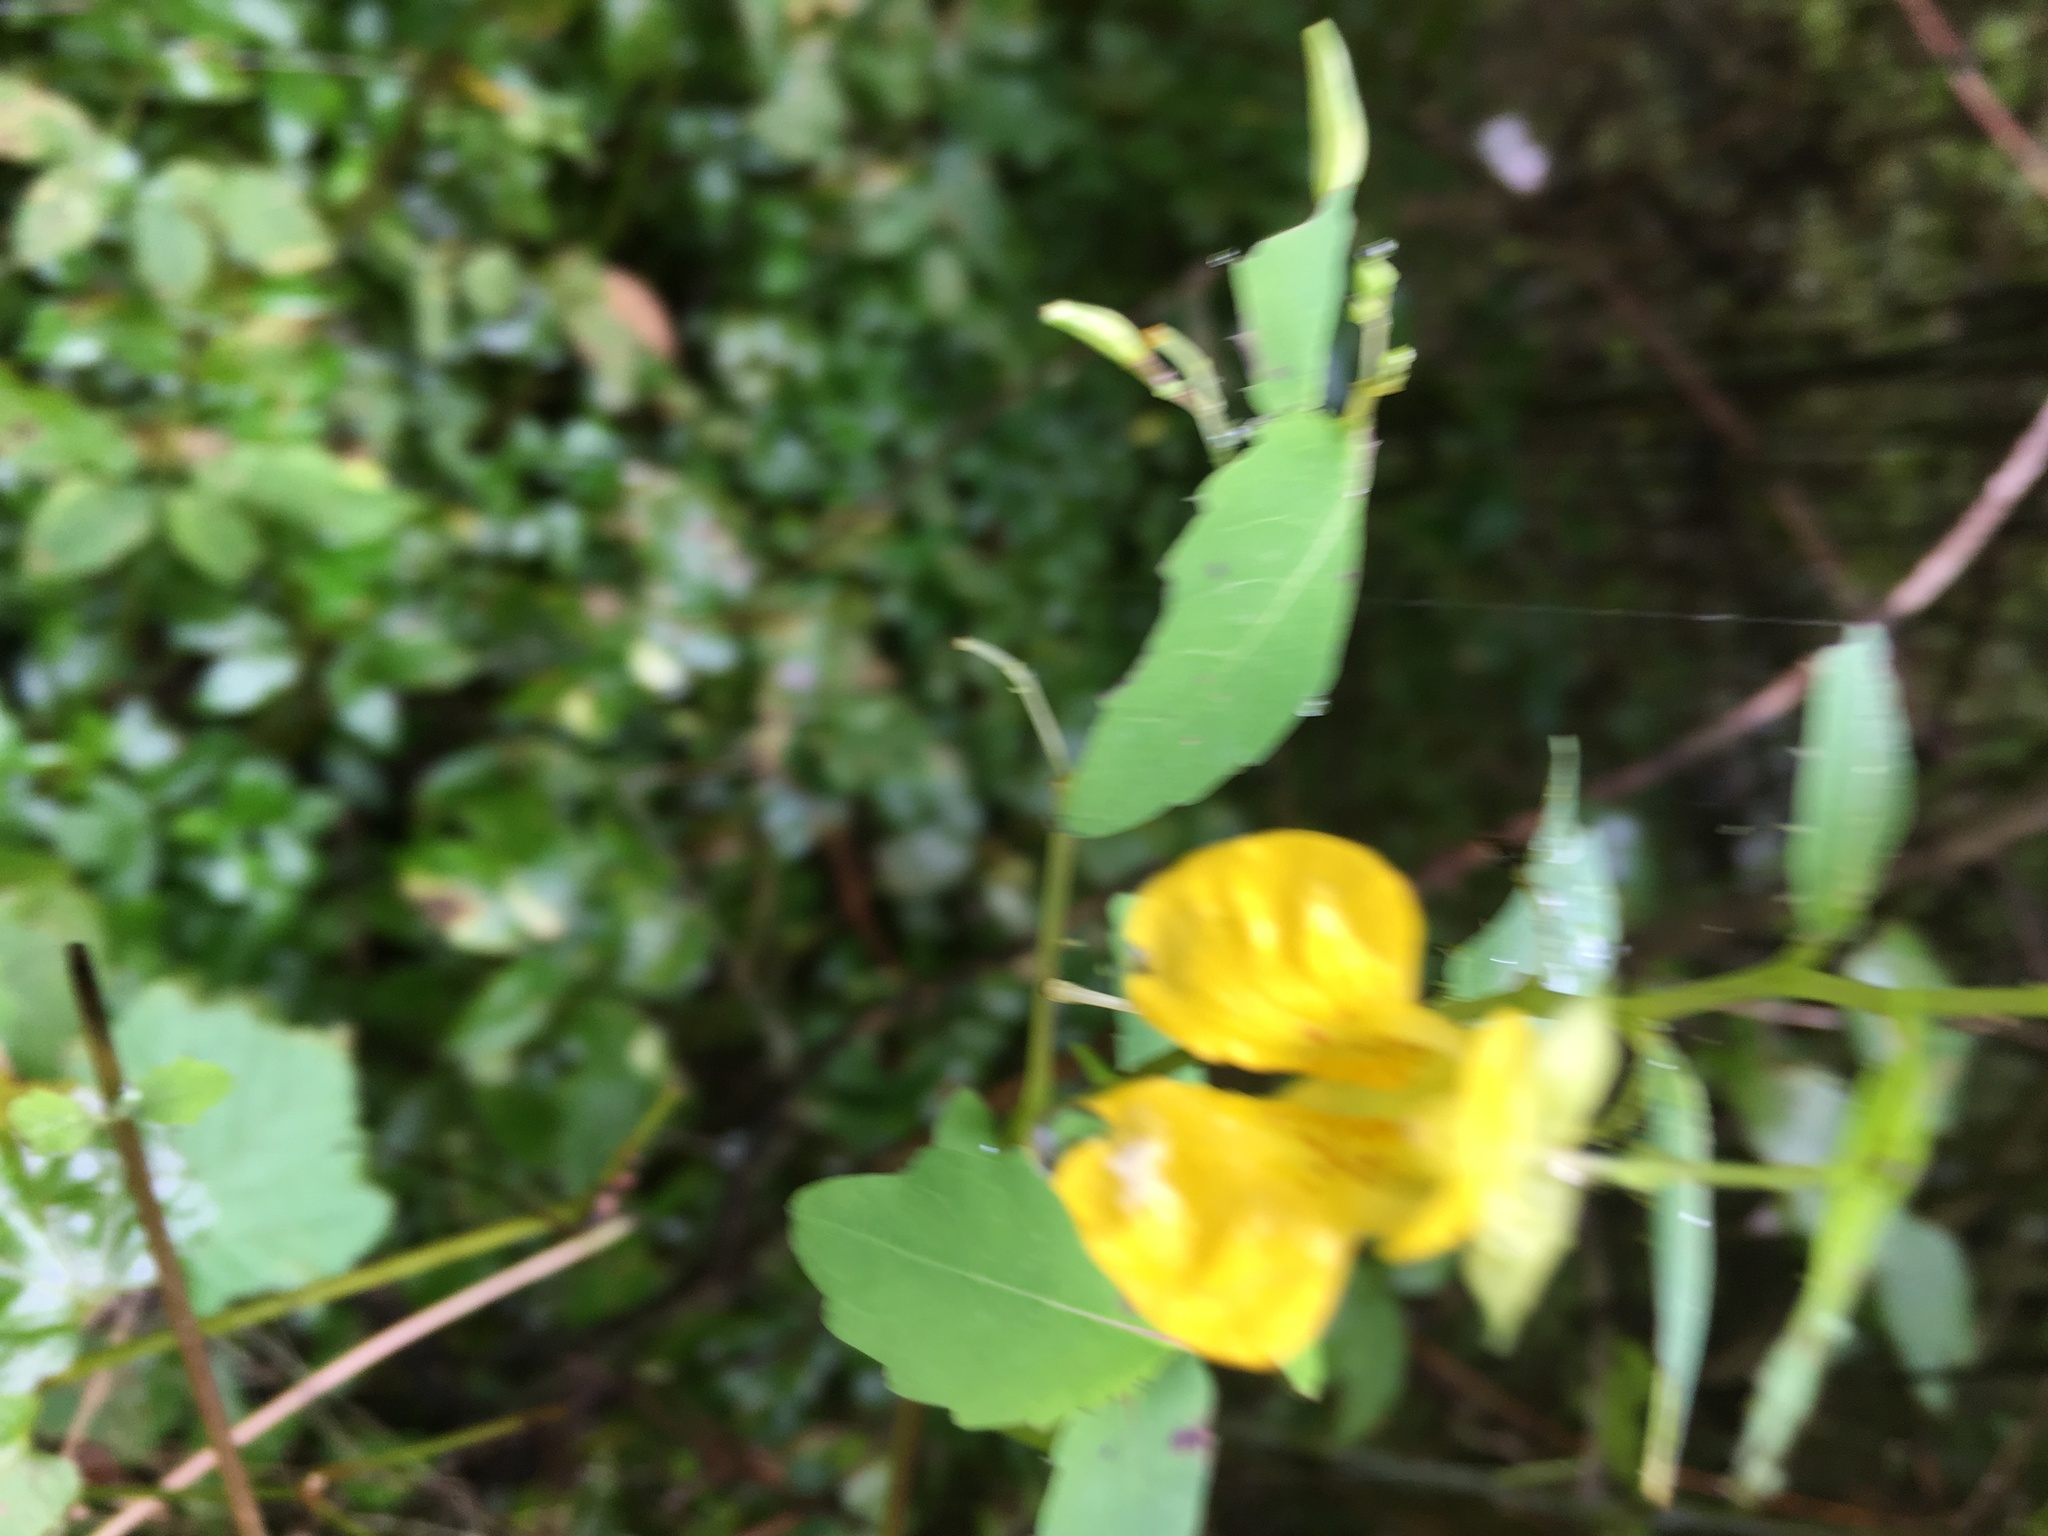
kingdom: Plantae
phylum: Tracheophyta
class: Magnoliopsida
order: Ericales
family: Balsaminaceae
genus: Impatiens
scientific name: Impatiens pallida
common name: Pale snapweed
